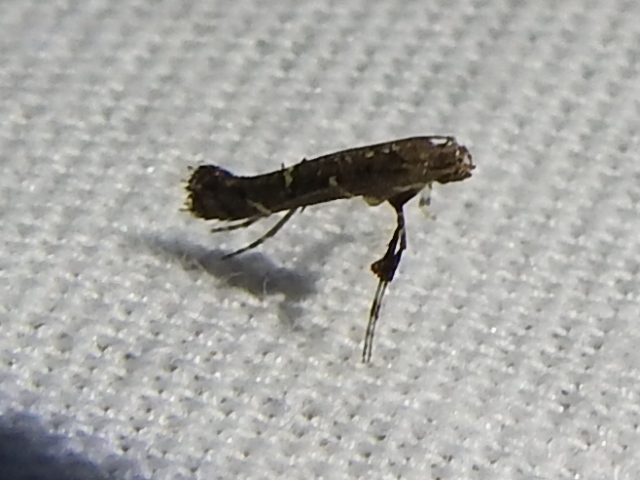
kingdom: Animalia
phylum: Arthropoda
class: Insecta
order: Lepidoptera
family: Gracillariidae
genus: Caloptilia
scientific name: Caloptilia triadicae
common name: Tallow leaf roller
